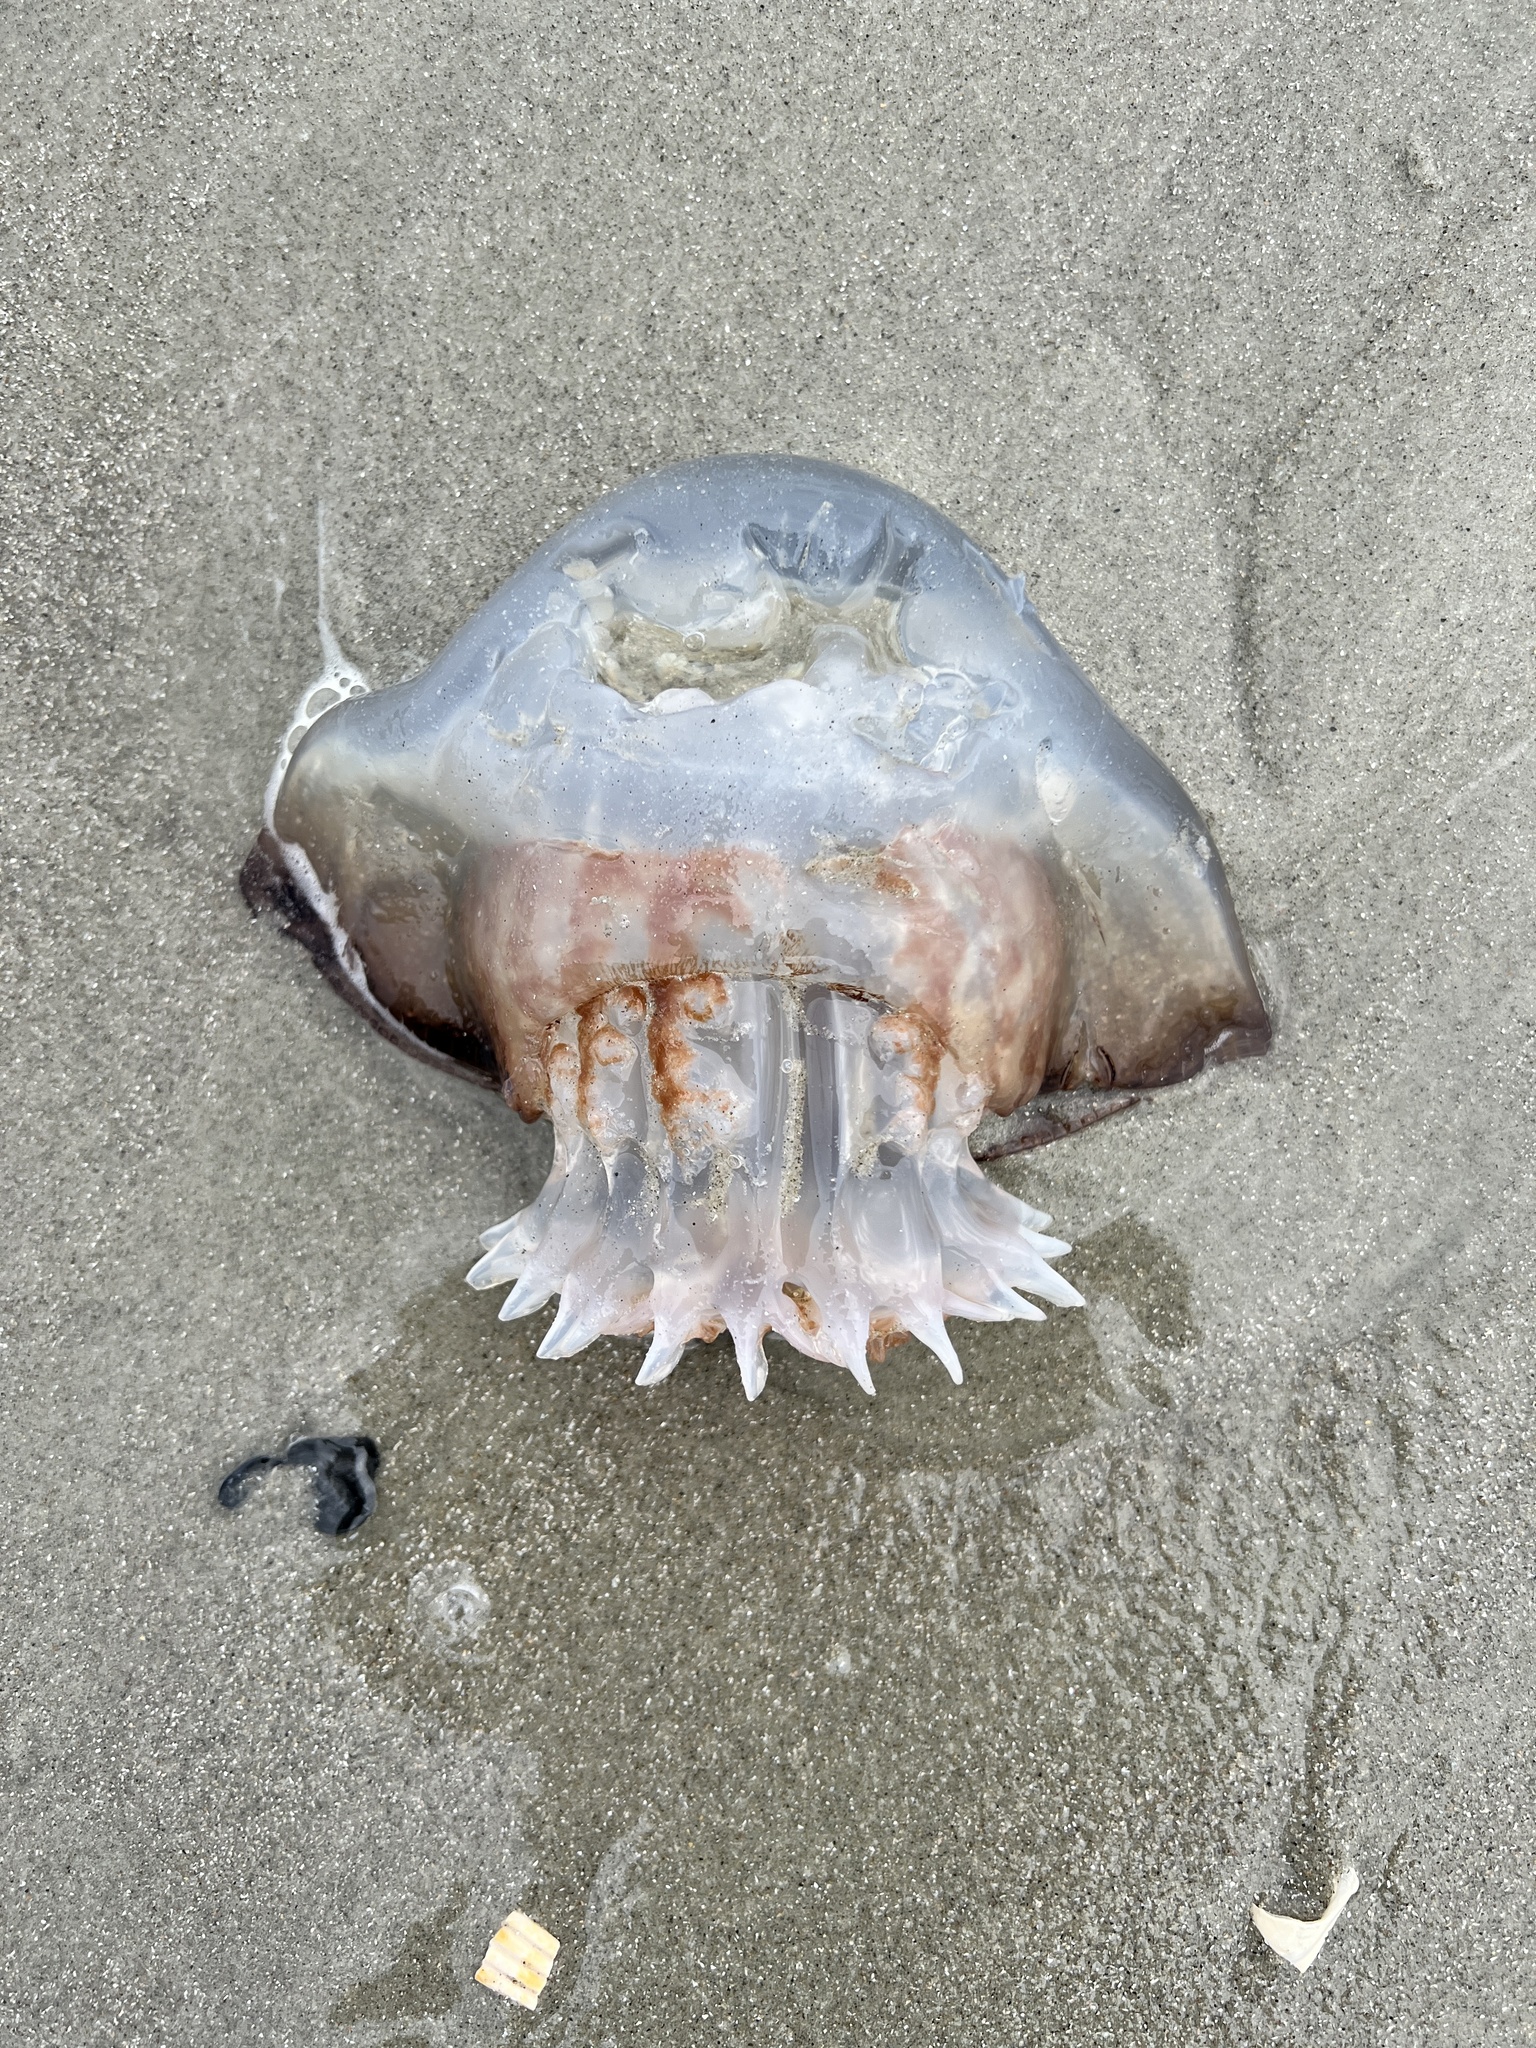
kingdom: Animalia
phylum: Cnidaria
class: Scyphozoa
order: Rhizostomeae
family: Stomolophidae
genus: Stomolophus
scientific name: Stomolophus meleagris
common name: Cabbagehead
